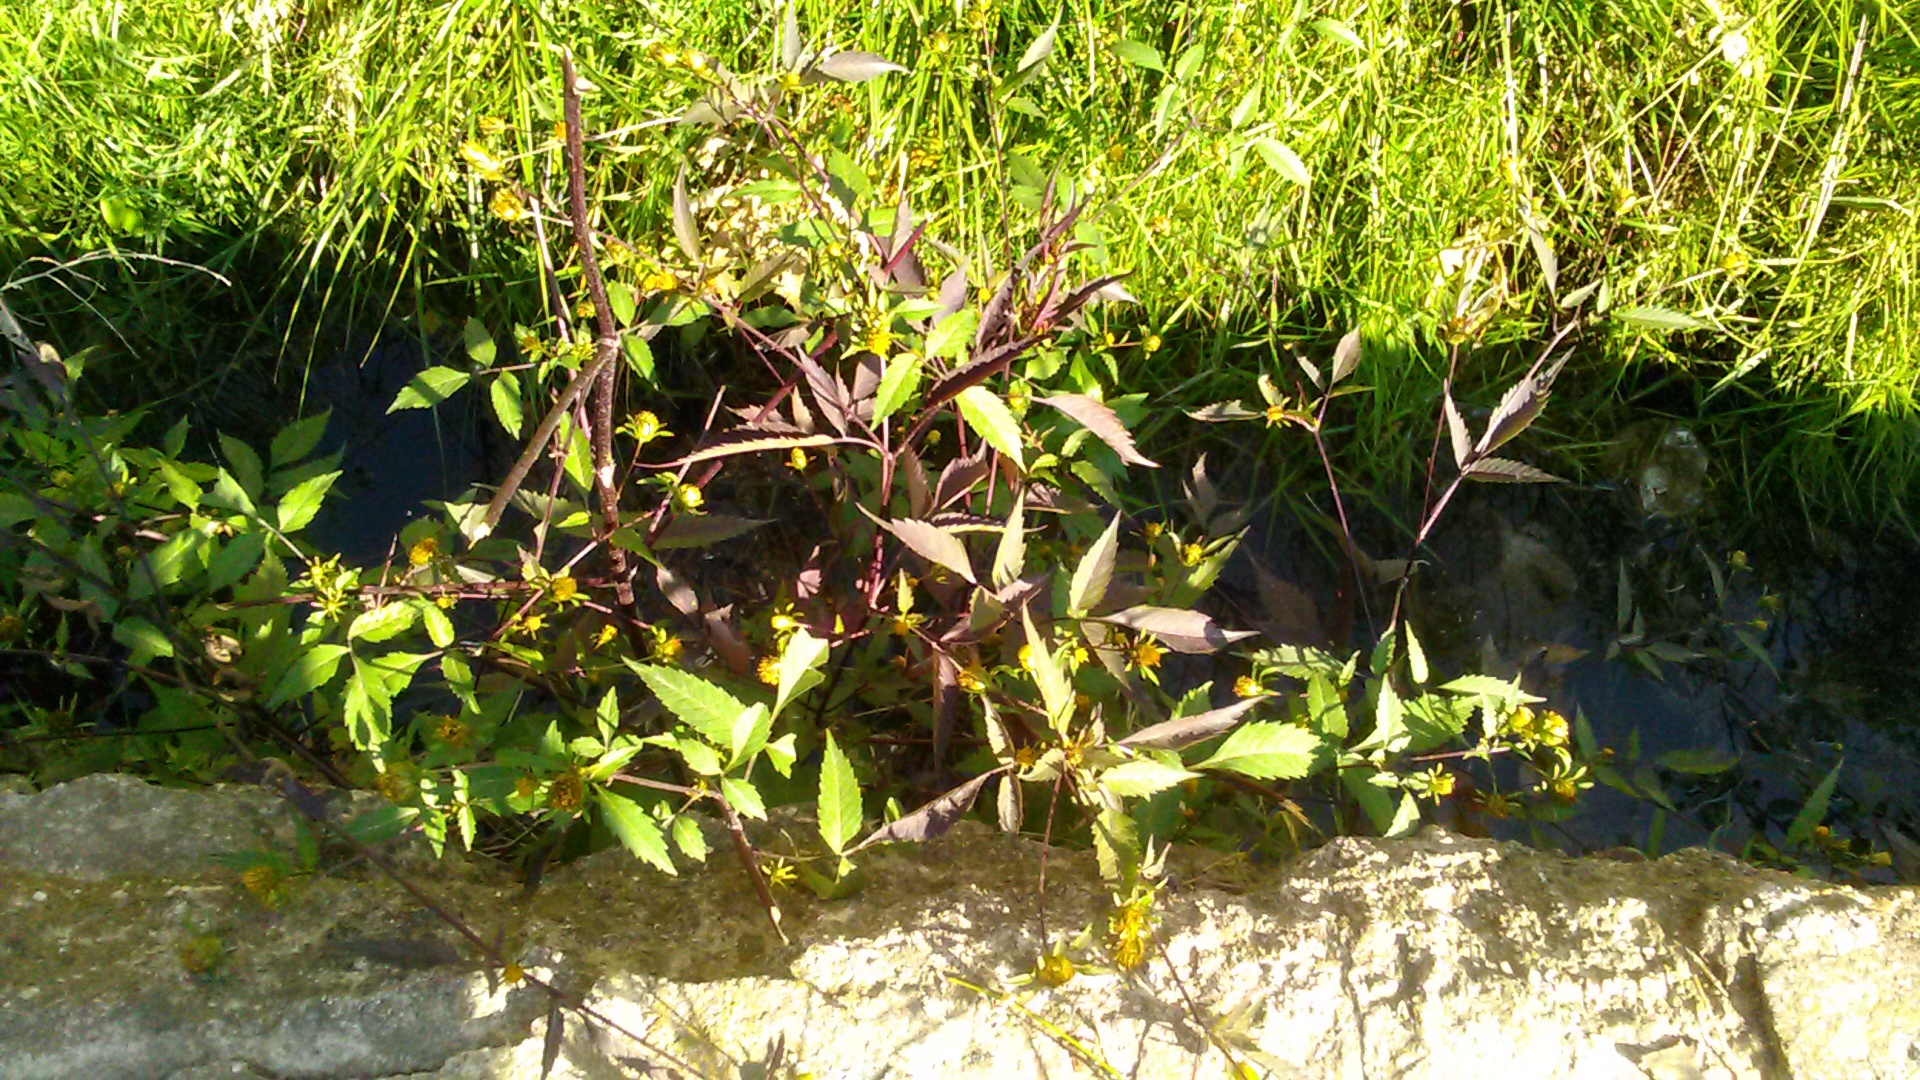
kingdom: Plantae
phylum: Tracheophyta
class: Magnoliopsida
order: Asterales
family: Asteraceae
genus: Bidens
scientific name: Bidens frondosa
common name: Beggarticks
